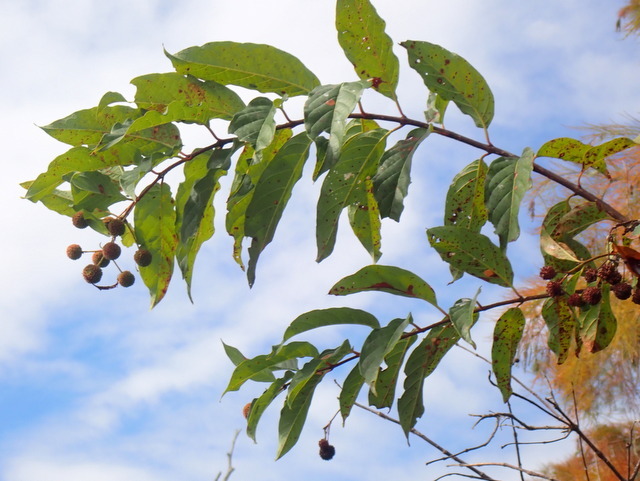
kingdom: Plantae
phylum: Tracheophyta
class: Magnoliopsida
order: Gentianales
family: Rubiaceae
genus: Cephalanthus
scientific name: Cephalanthus occidentalis
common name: Button-willow
